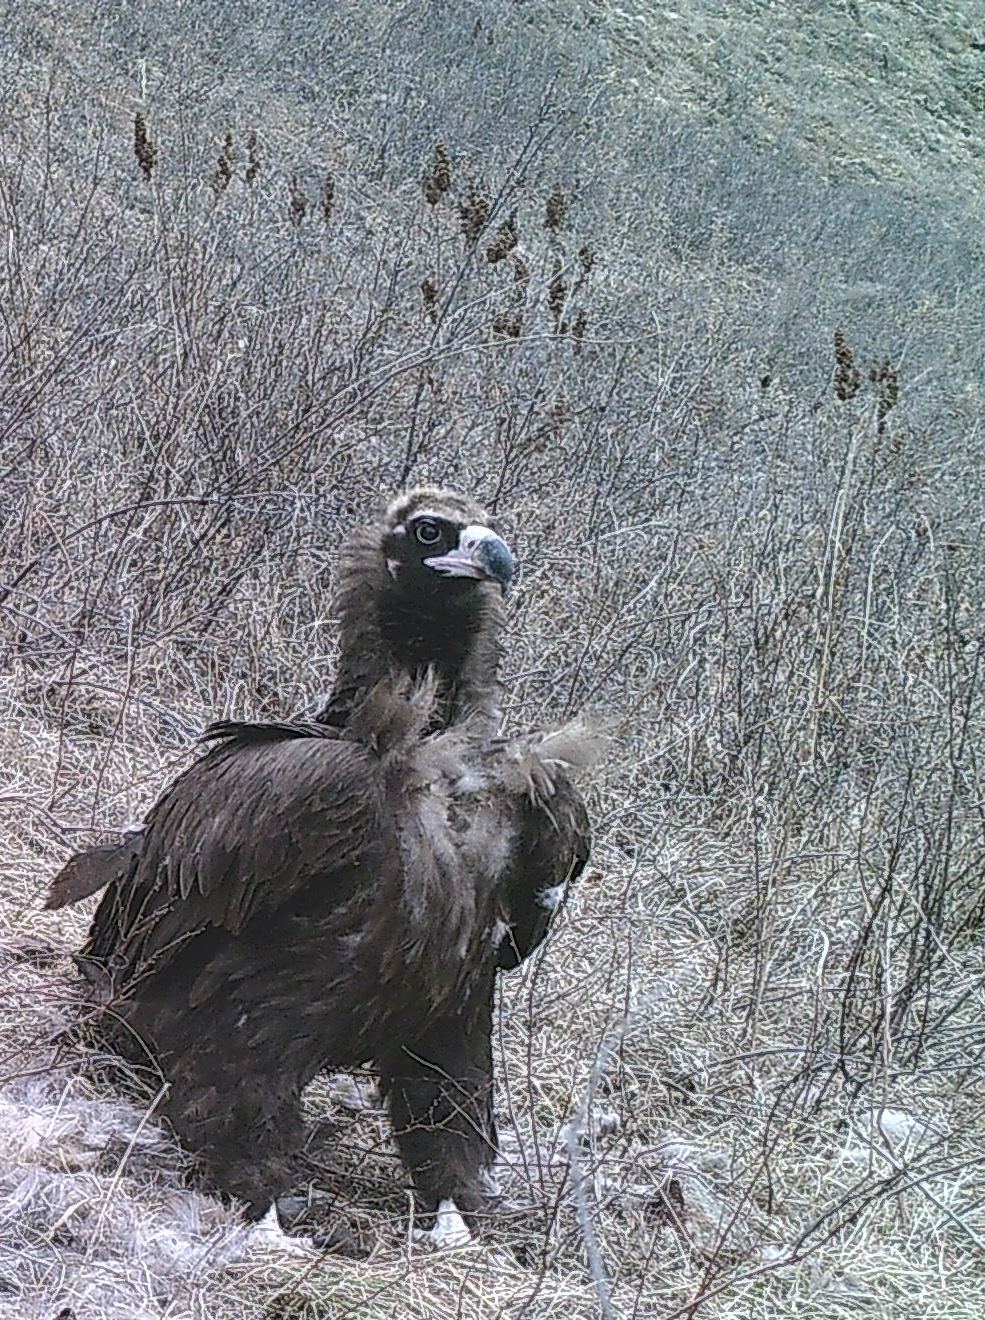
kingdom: Animalia
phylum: Chordata
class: Aves
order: Accipitriformes
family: Accipitridae
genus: Aegypius
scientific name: Aegypius monachus
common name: Cinereous vulture
